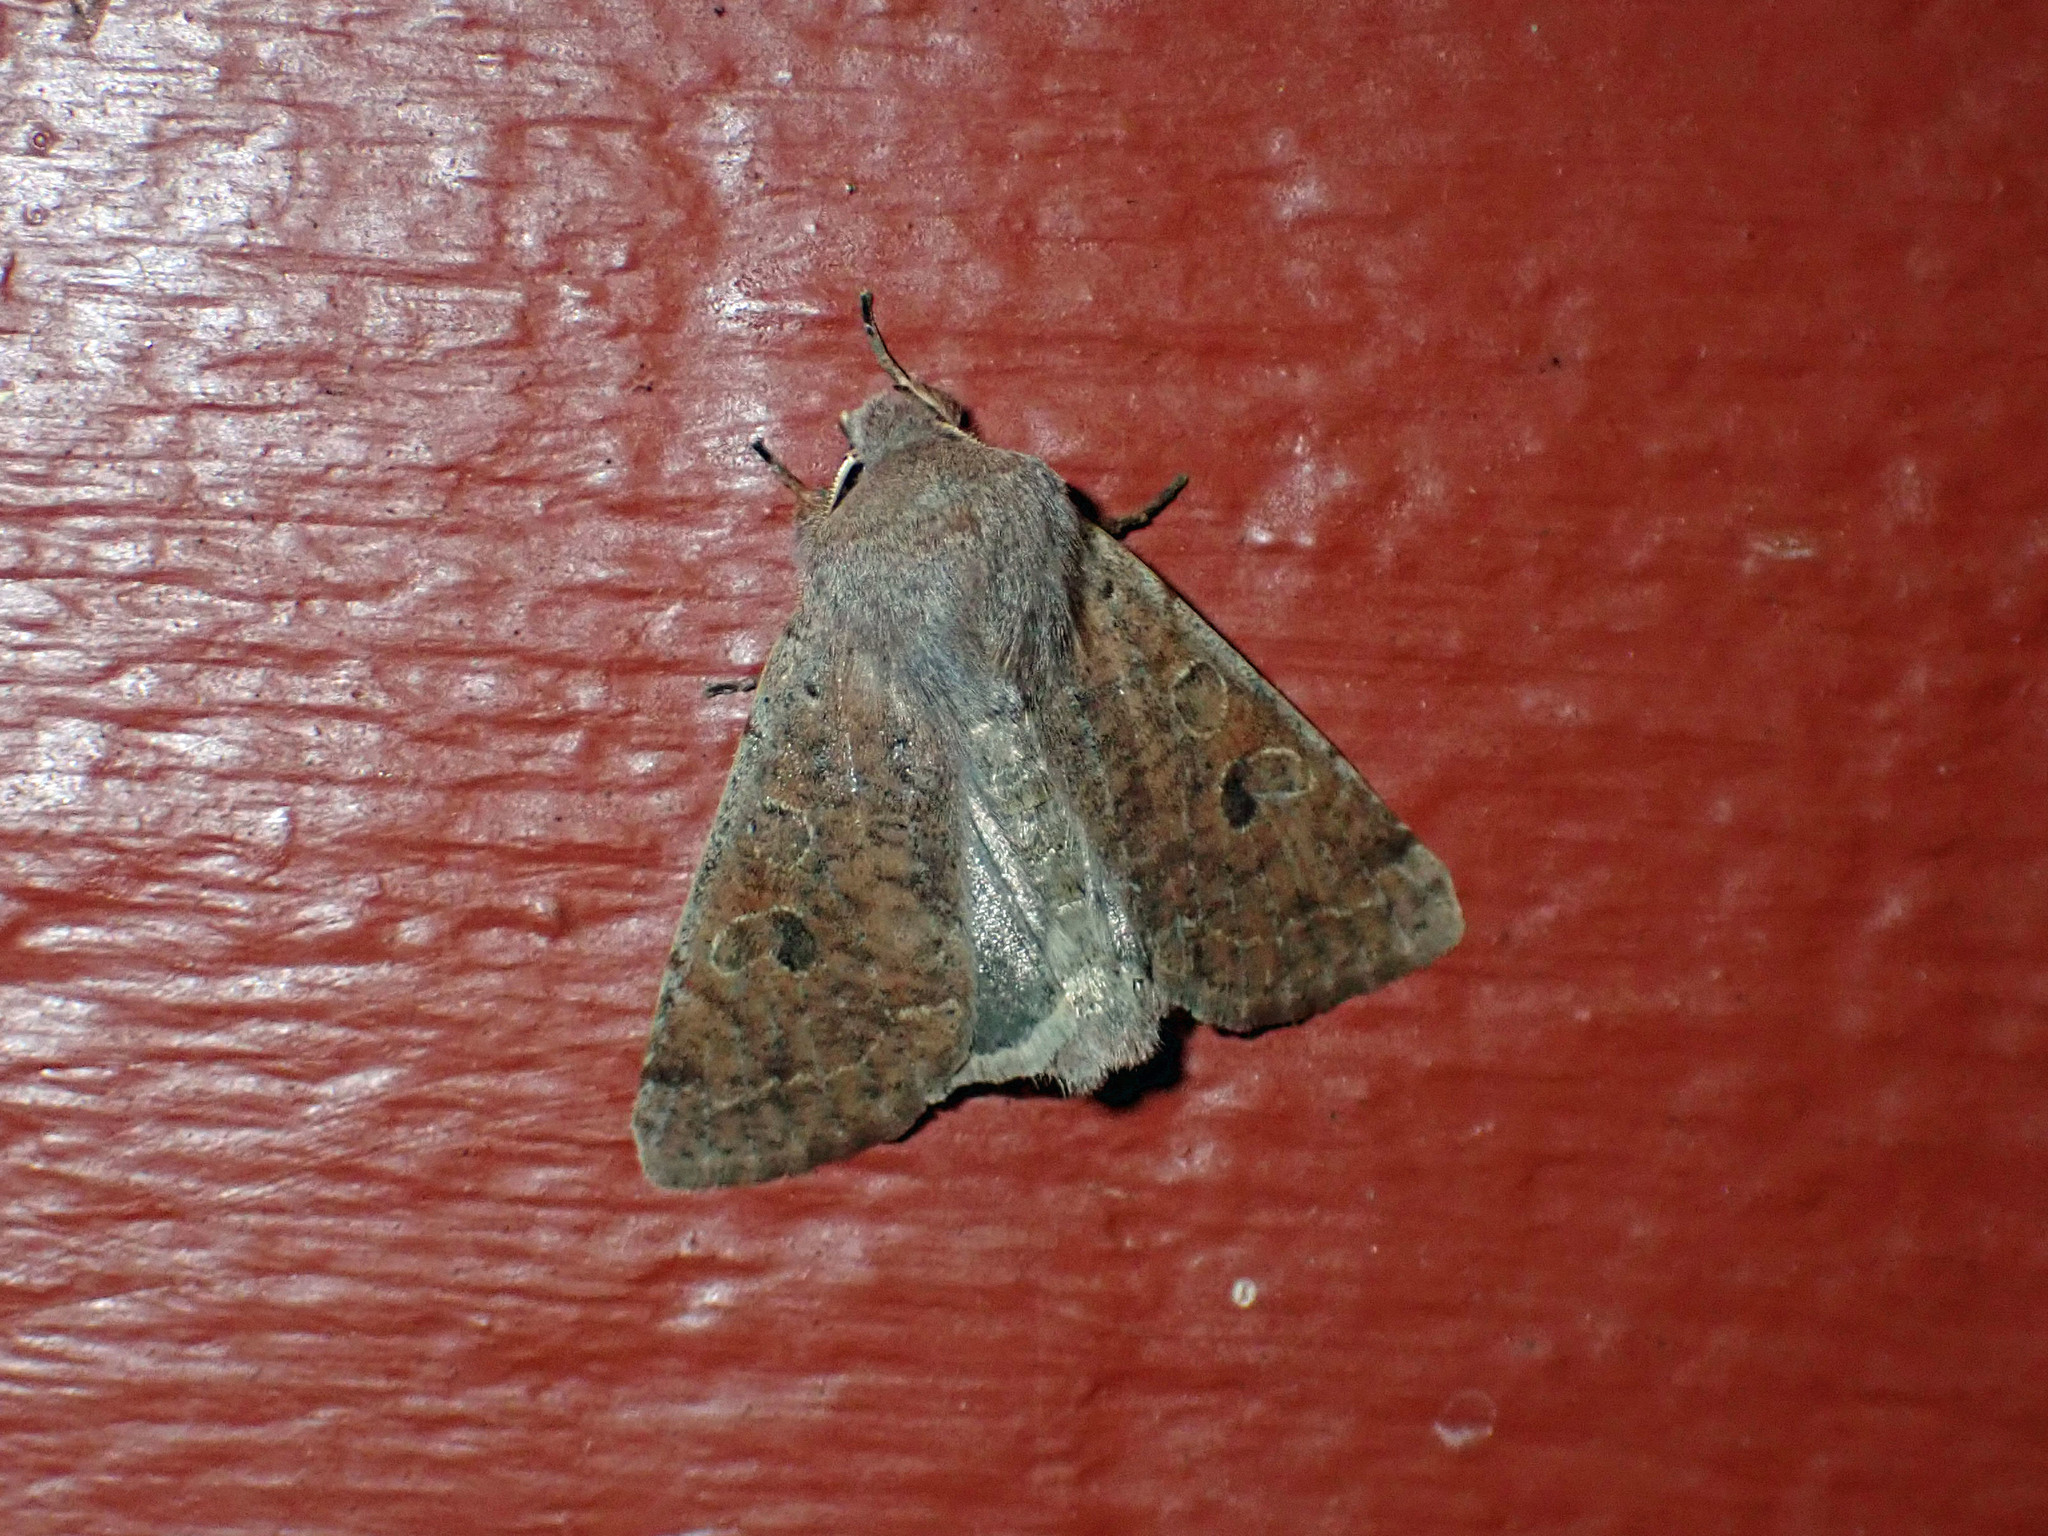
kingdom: Animalia
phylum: Arthropoda
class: Insecta
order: Lepidoptera
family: Noctuidae
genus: Orthosia
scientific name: Orthosia hibisci
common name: Green fruitworm
